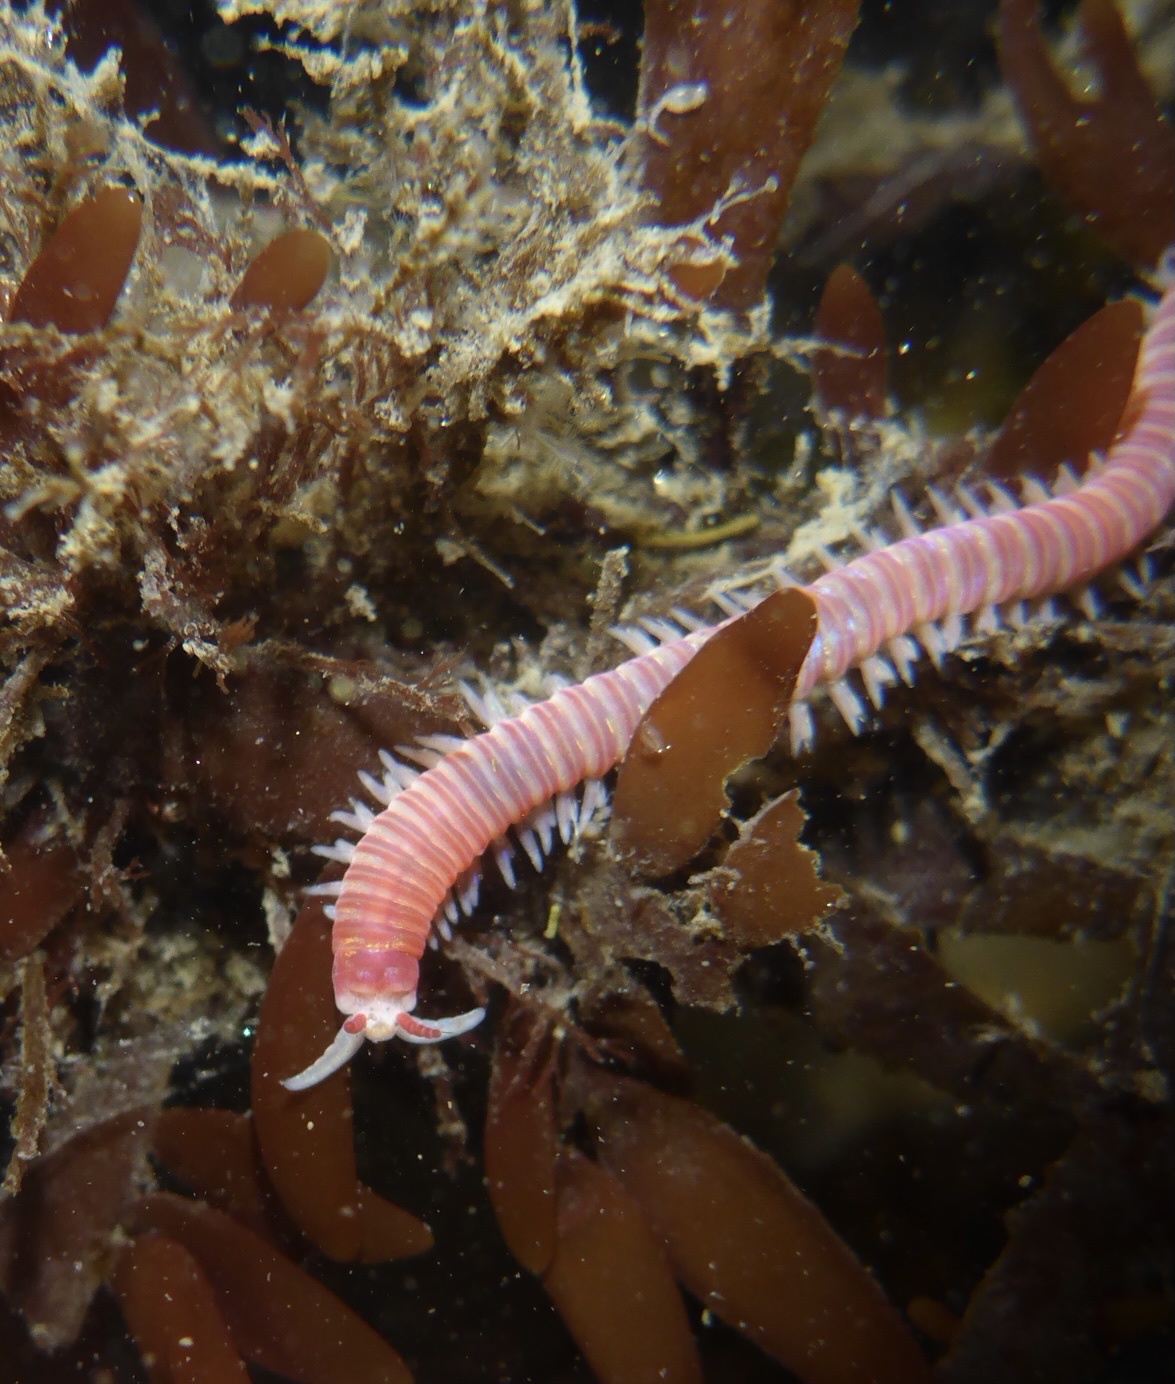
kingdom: Animalia
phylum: Annelida
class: Polychaeta
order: Eunicida
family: Dorvilleidae
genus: Dorvillea
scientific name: Dorvillea moniloceras
